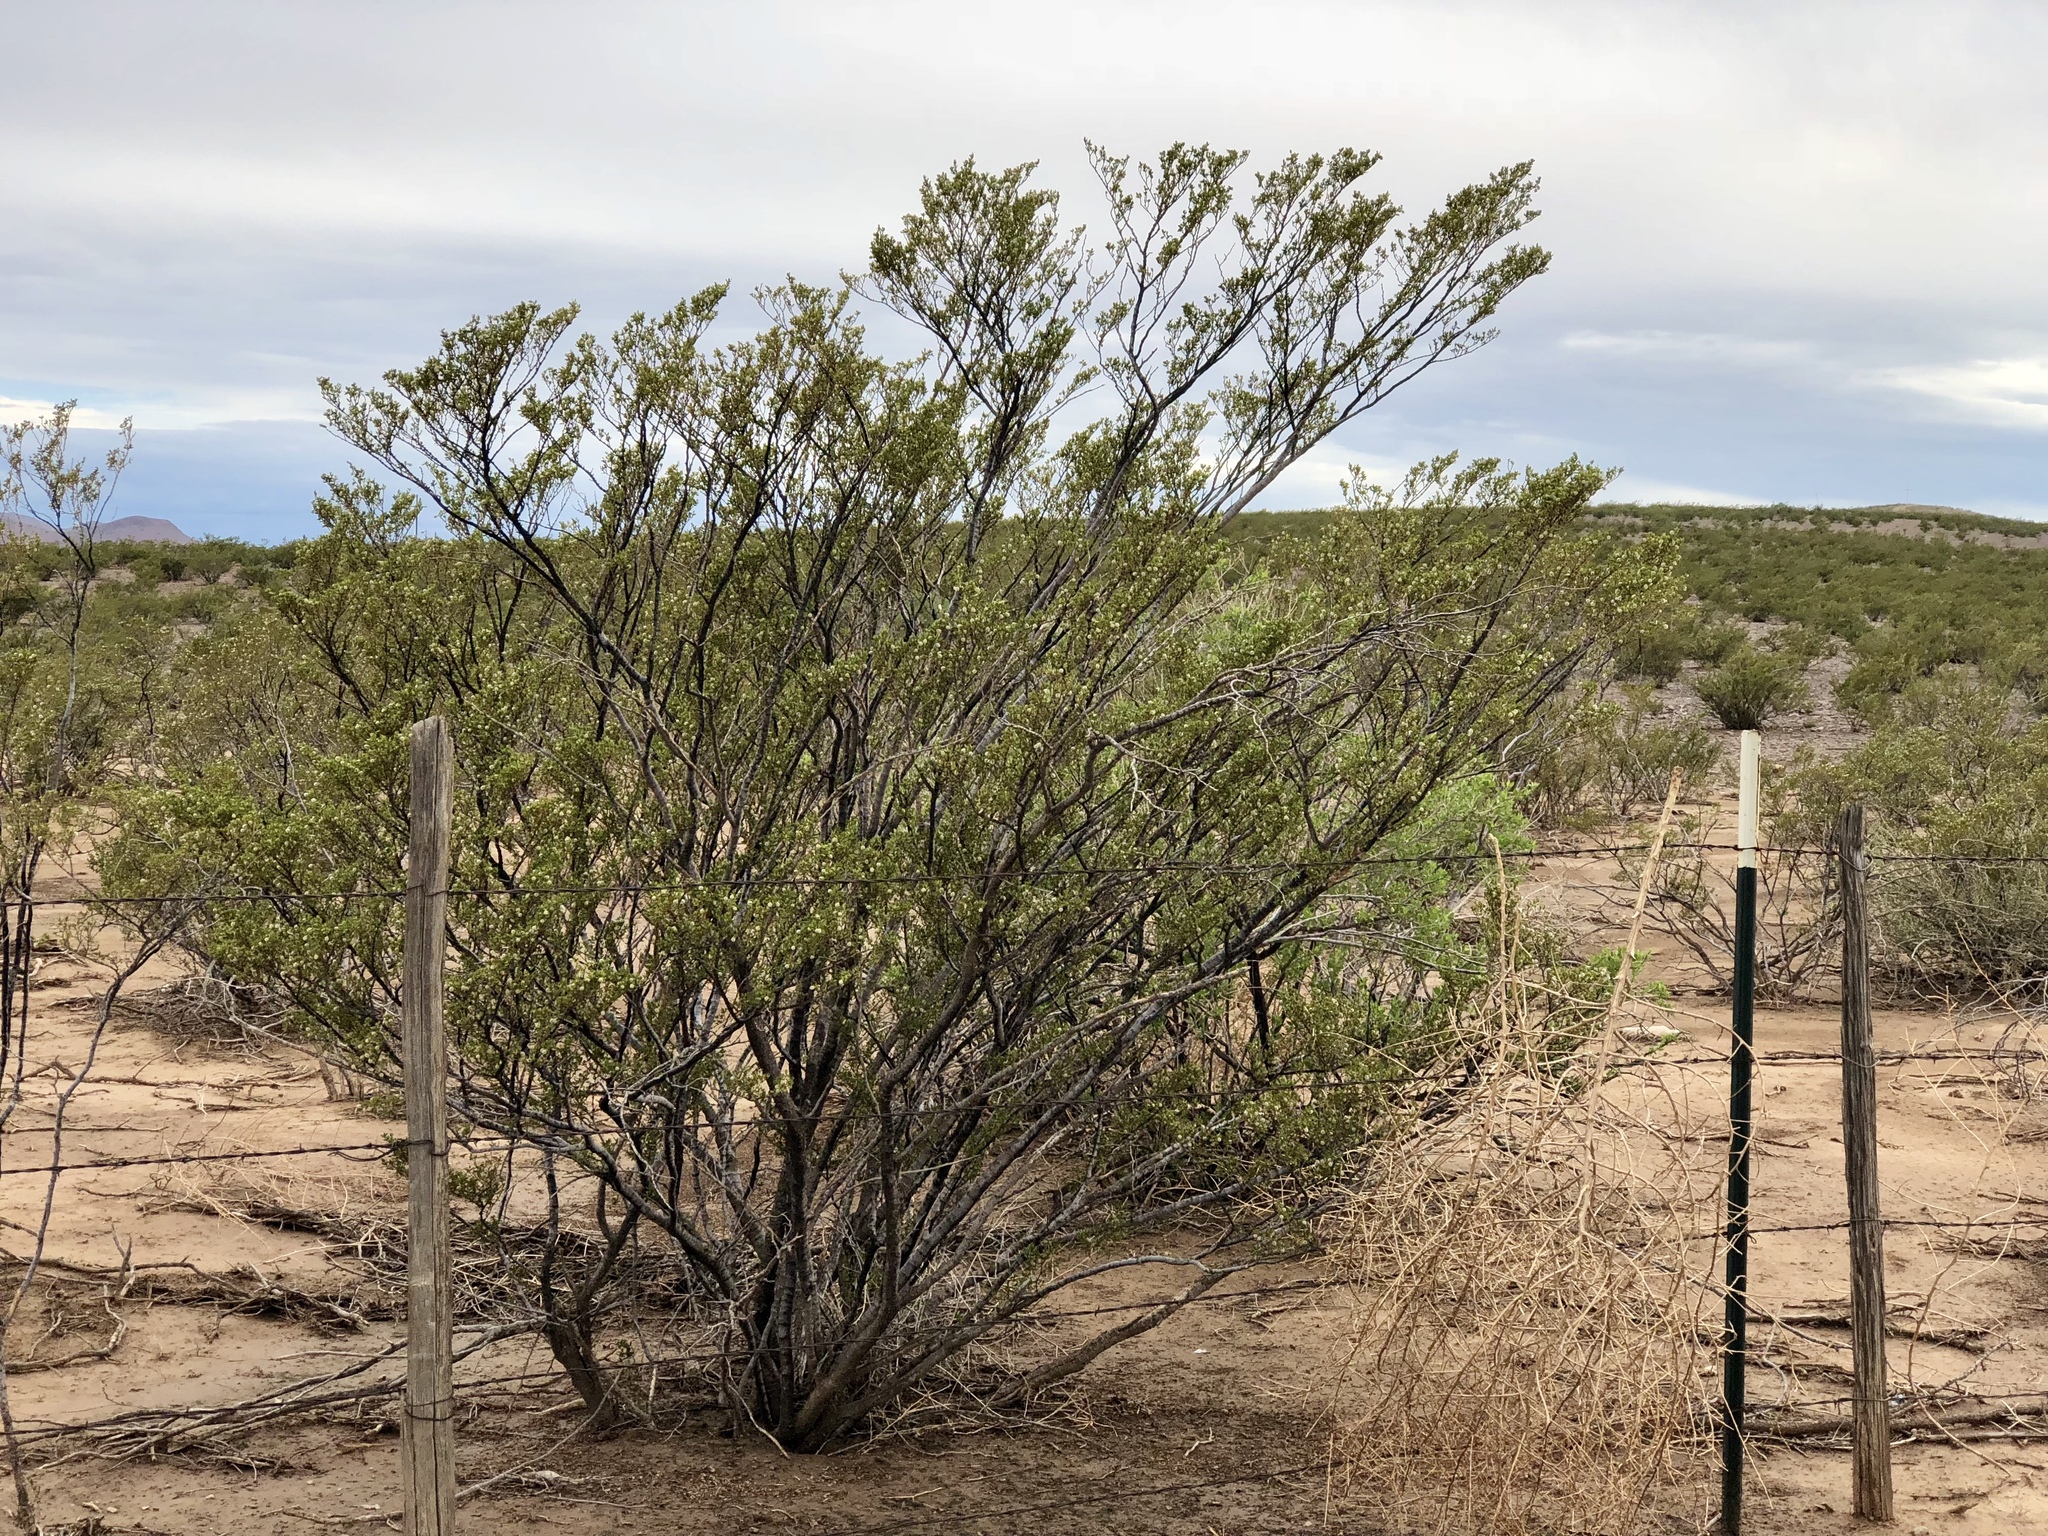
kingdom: Plantae
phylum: Tracheophyta
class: Magnoliopsida
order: Zygophyllales
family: Zygophyllaceae
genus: Larrea
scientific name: Larrea tridentata
